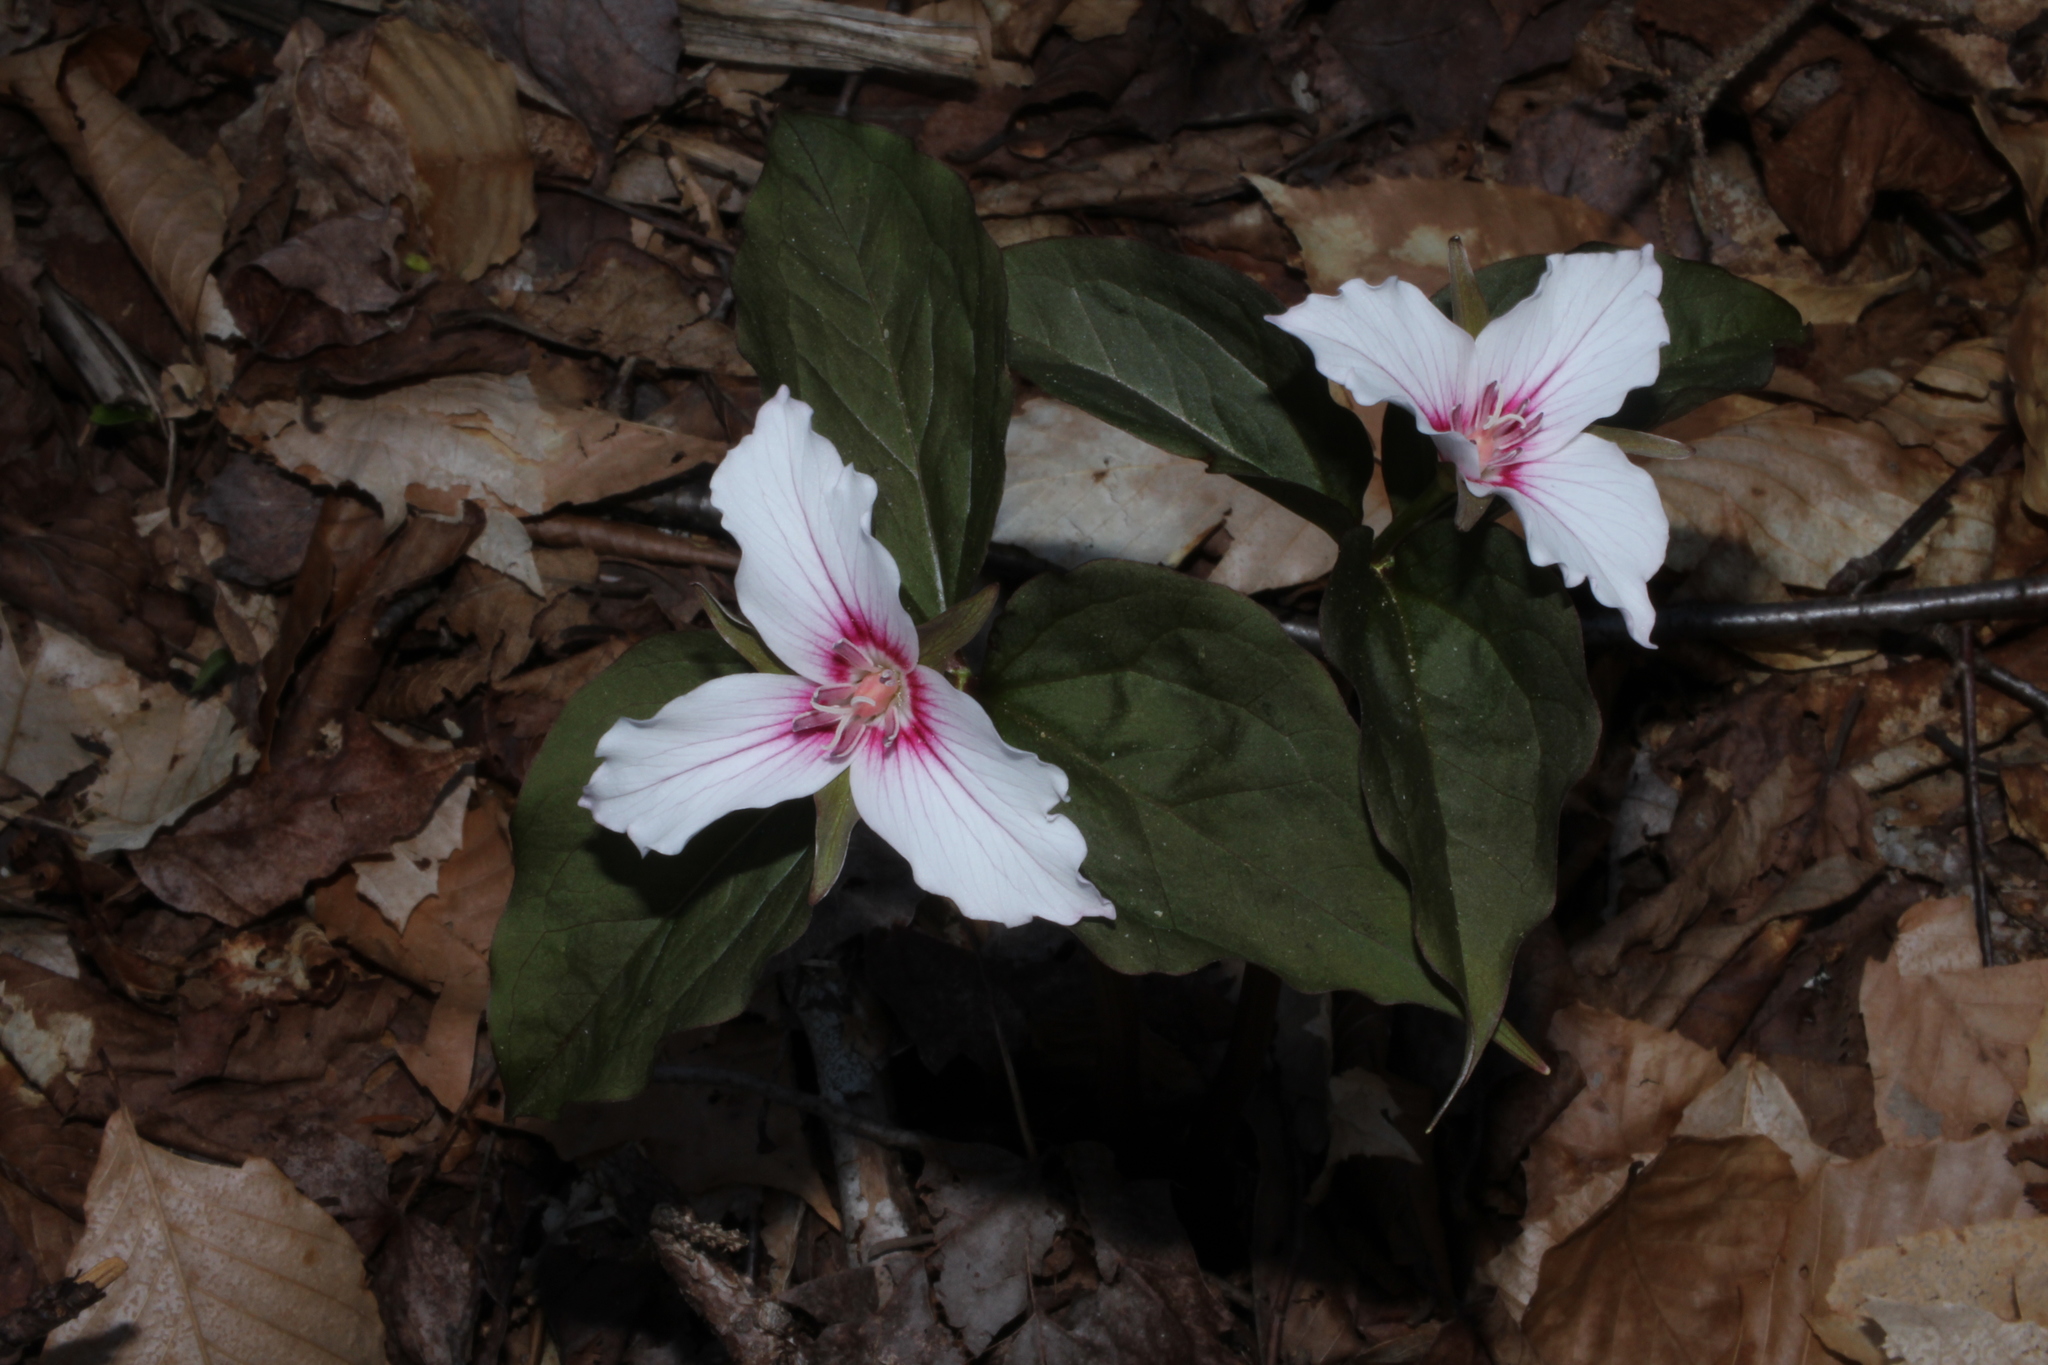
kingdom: Plantae
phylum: Tracheophyta
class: Liliopsida
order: Liliales
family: Melanthiaceae
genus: Trillium
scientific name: Trillium undulatum
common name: Paint trillium
